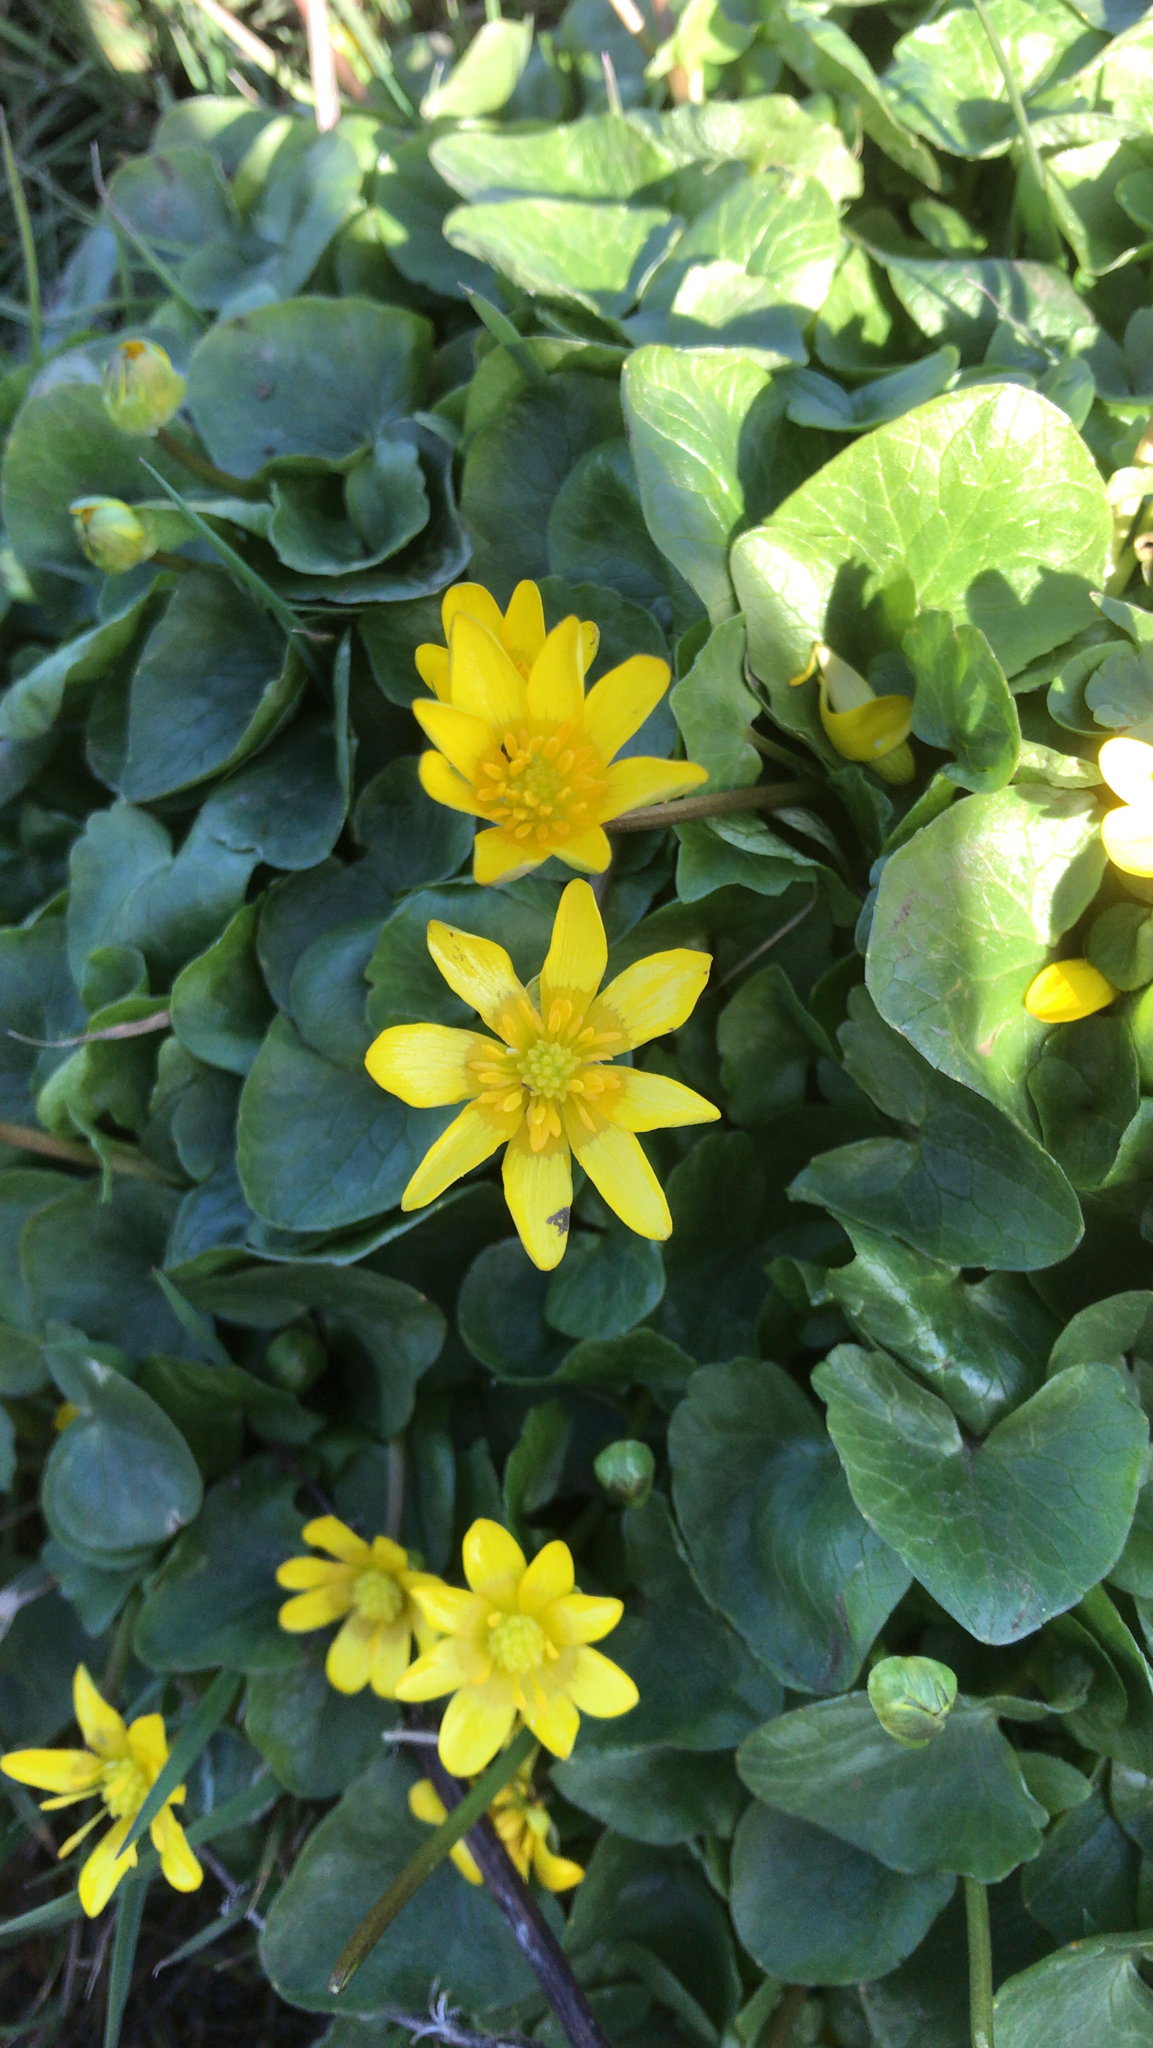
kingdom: Plantae
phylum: Tracheophyta
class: Magnoliopsida
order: Ranunculales
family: Ranunculaceae
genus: Ficaria
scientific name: Ficaria verna
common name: Lesser celandine
